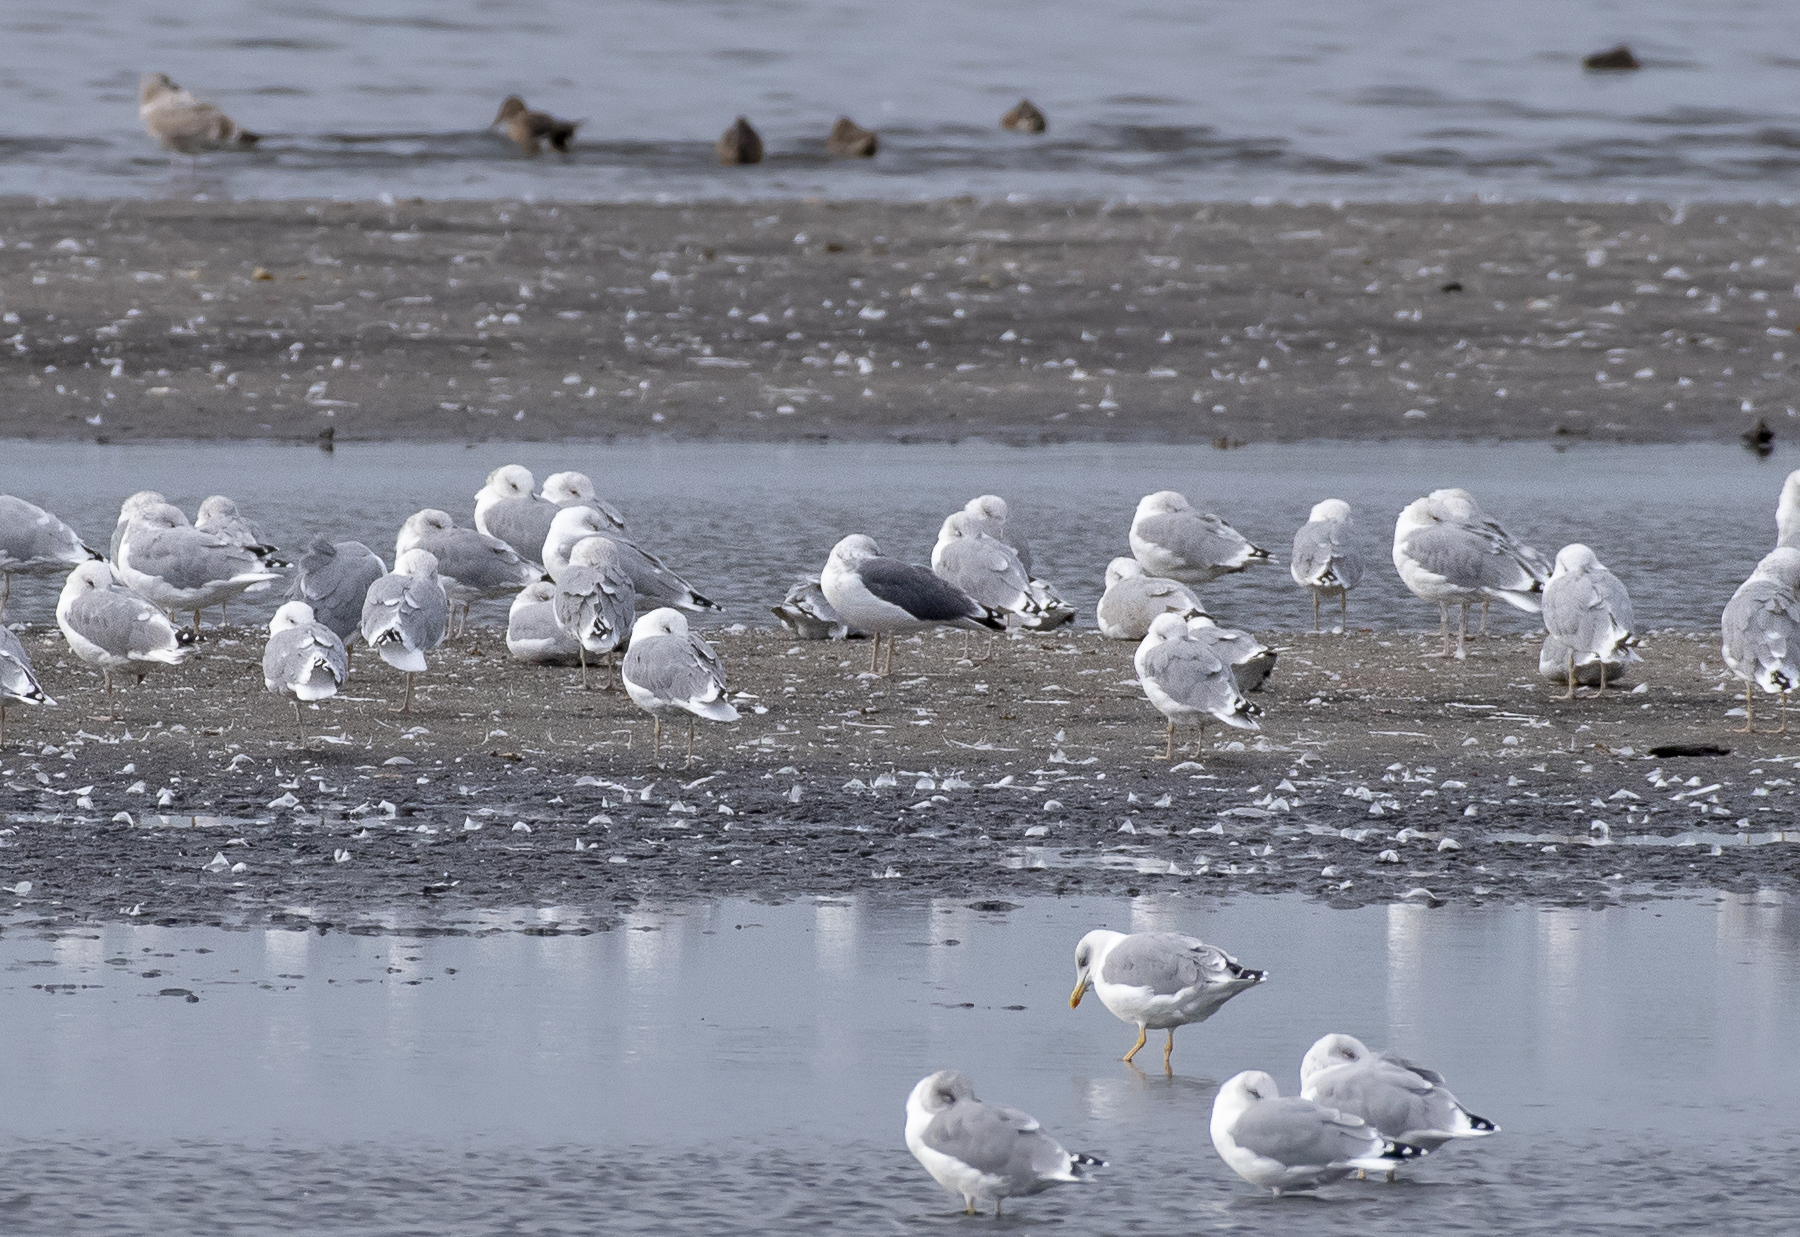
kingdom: Animalia
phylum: Chordata
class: Aves
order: Charadriiformes
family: Laridae
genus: Larus
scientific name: Larus fuscus
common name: Lesser black-backed gull
